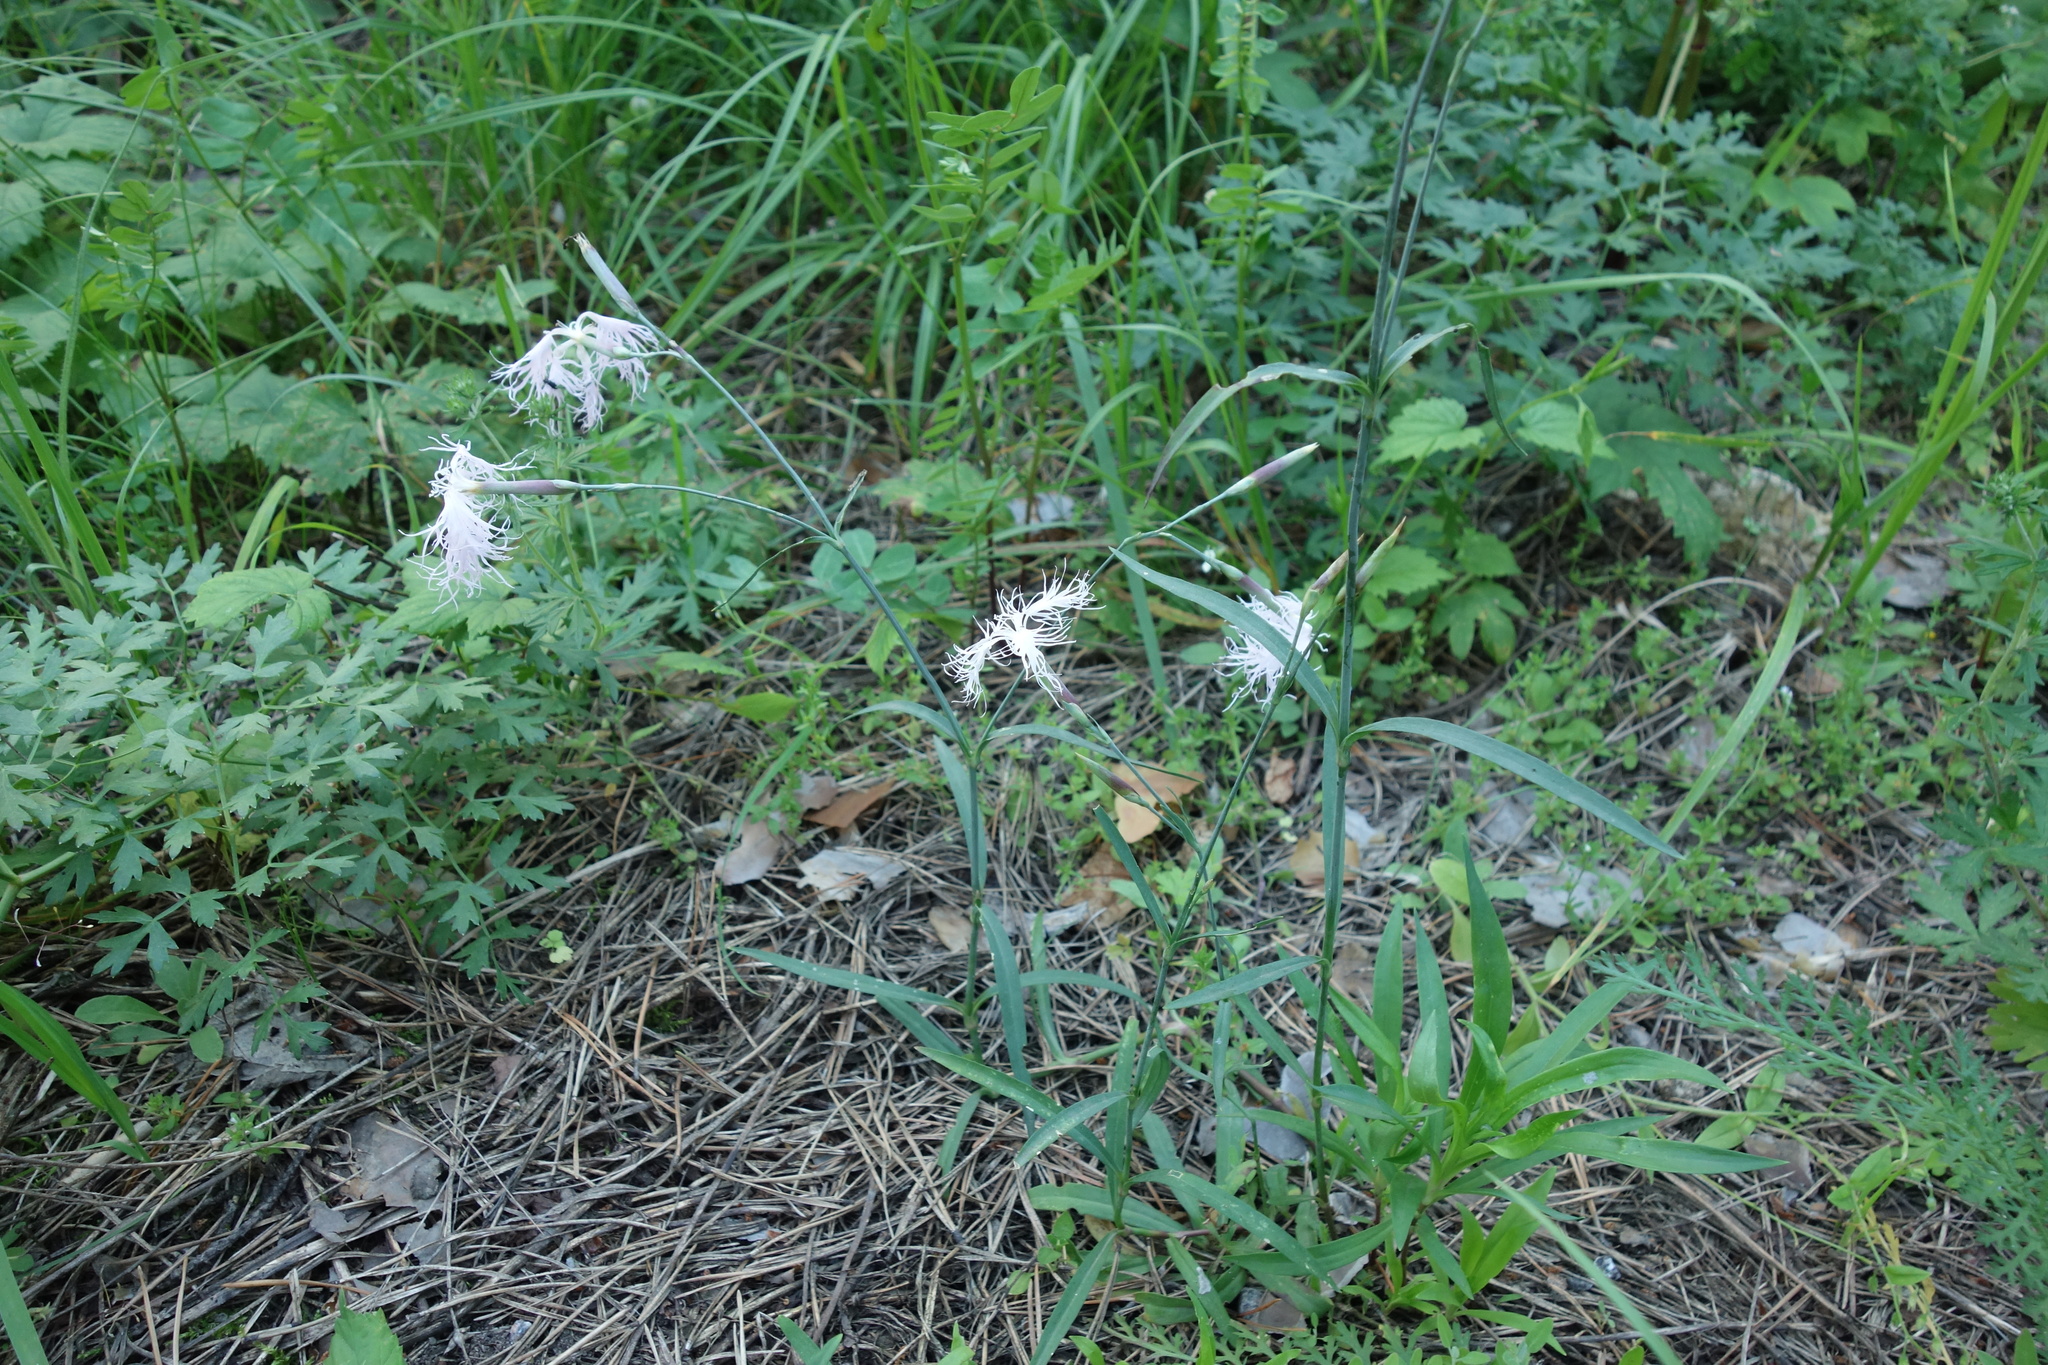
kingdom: Plantae
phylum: Tracheophyta
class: Magnoliopsida
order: Caryophyllales
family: Caryophyllaceae
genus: Dianthus
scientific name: Dianthus superbus
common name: Fringed pink
